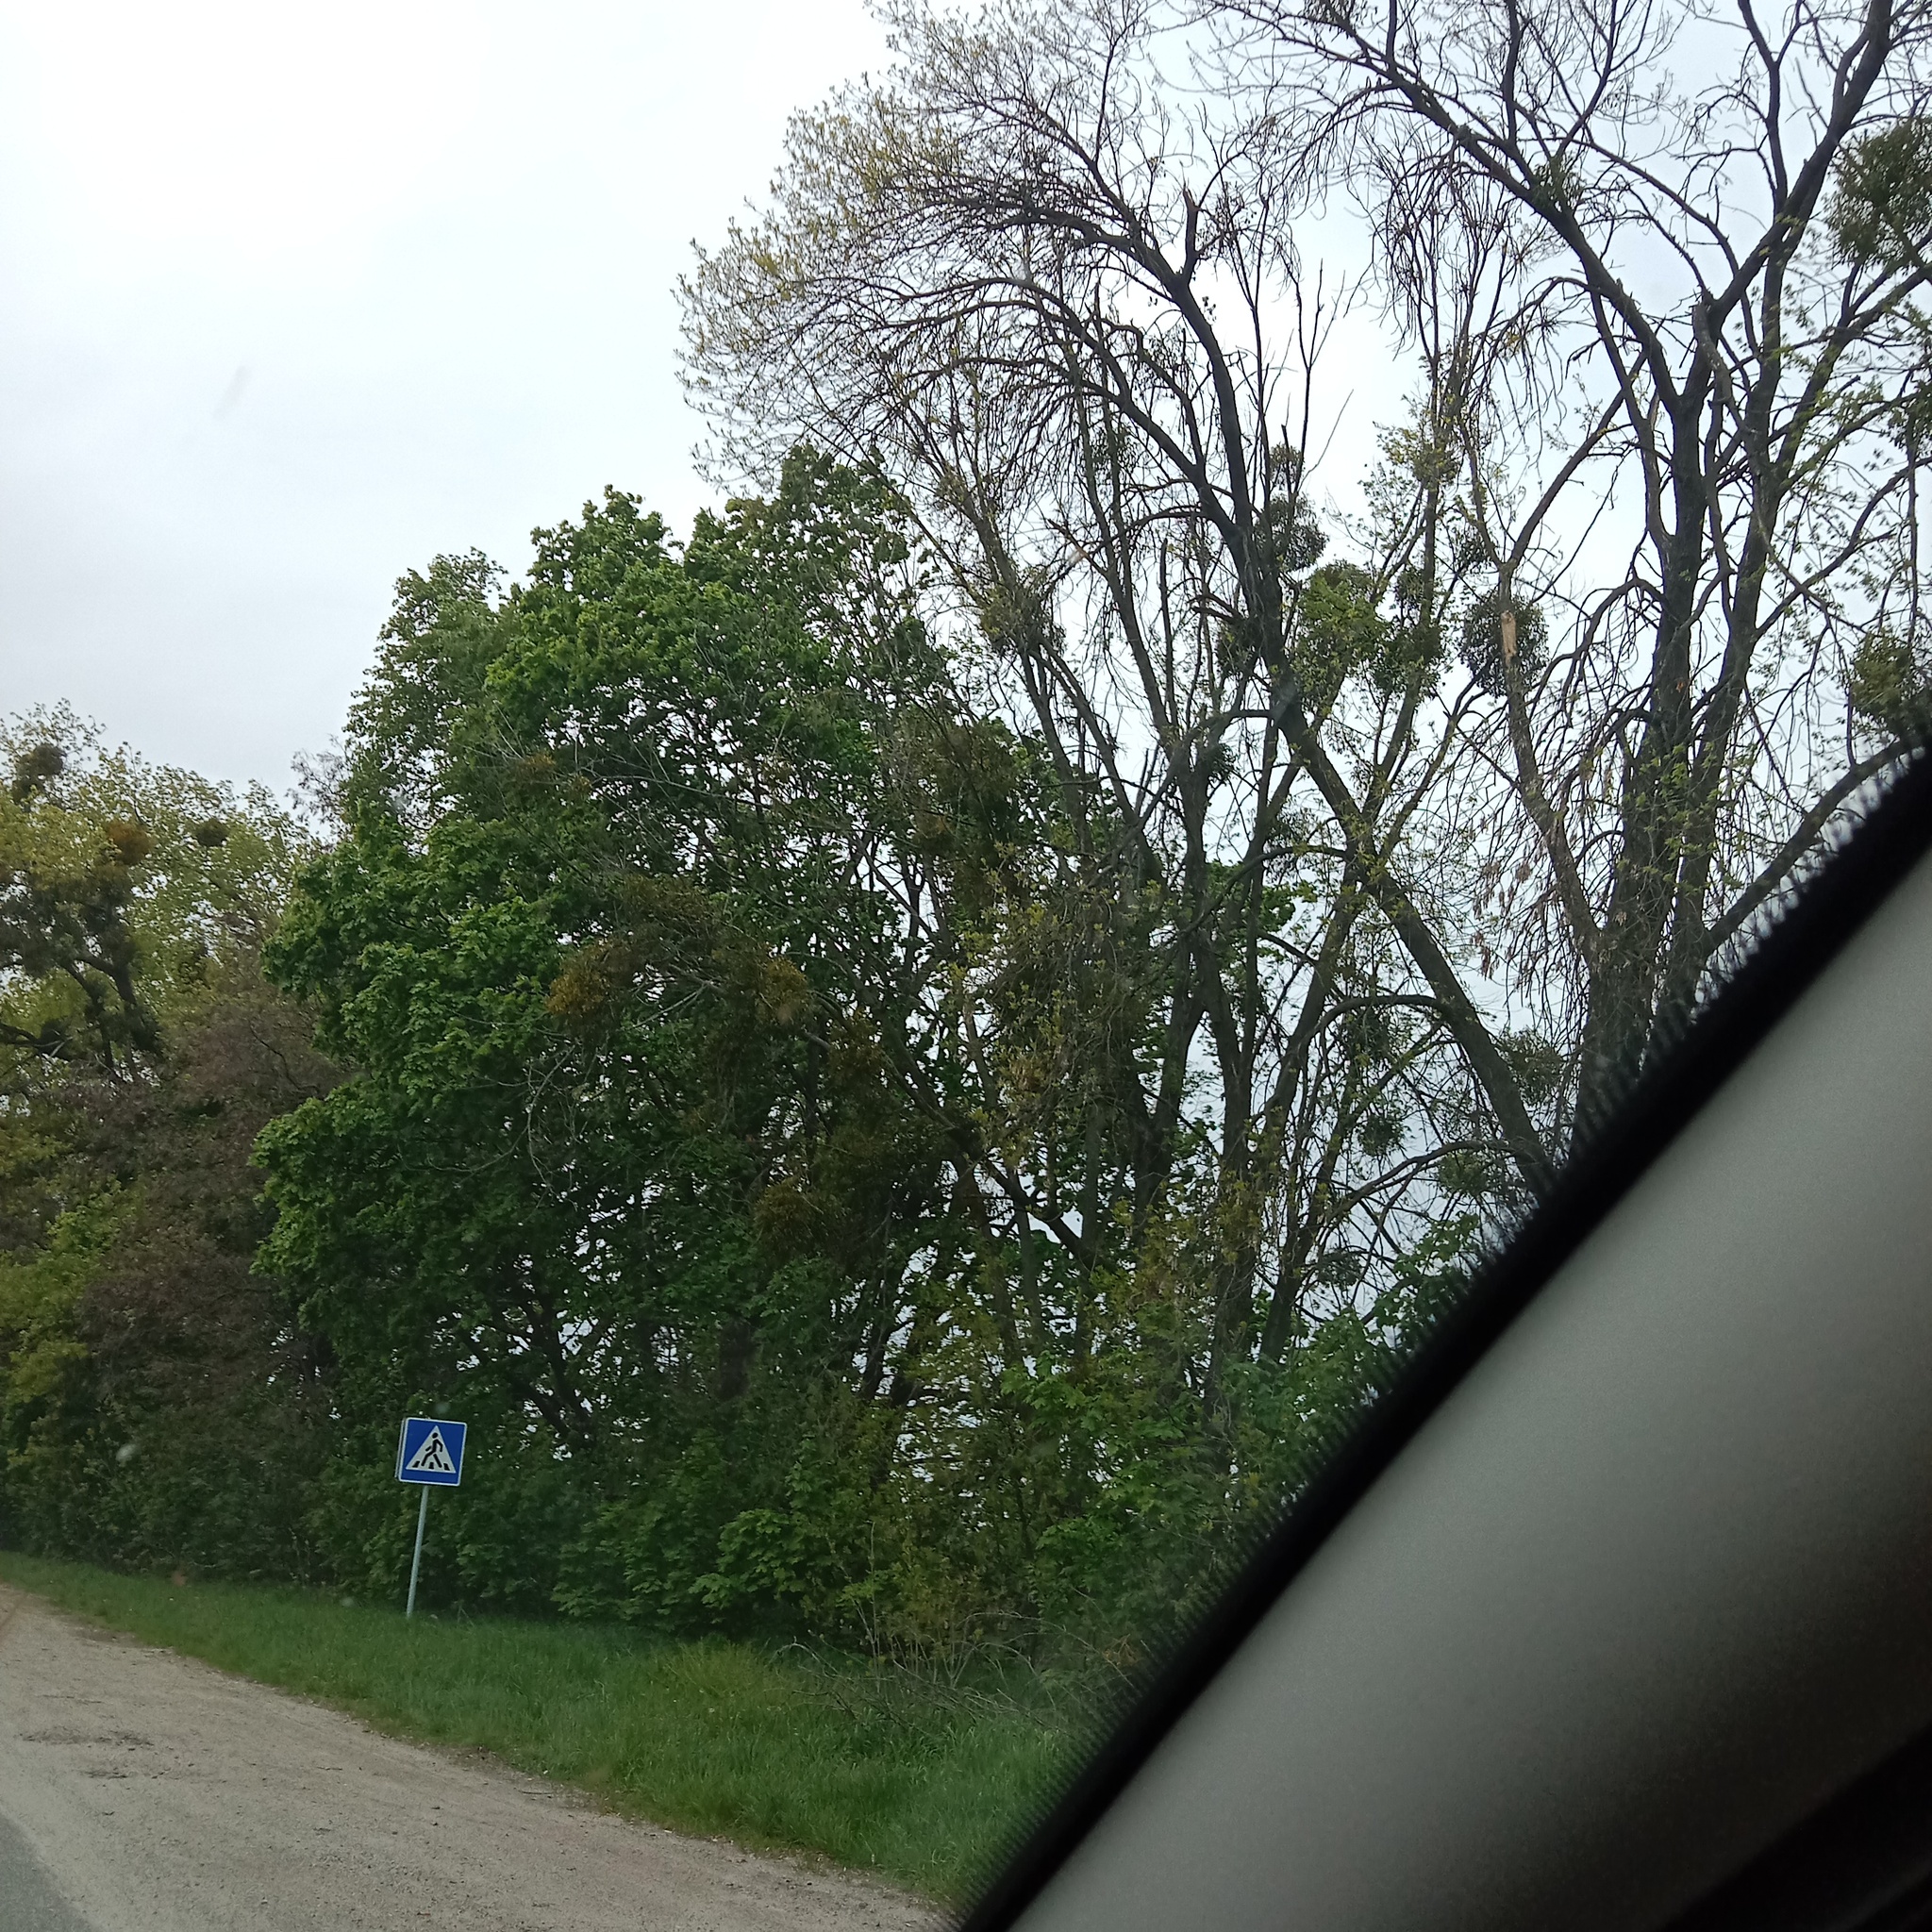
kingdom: Plantae
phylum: Tracheophyta
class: Magnoliopsida
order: Santalales
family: Viscaceae
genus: Viscum
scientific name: Viscum album
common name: Mistletoe
